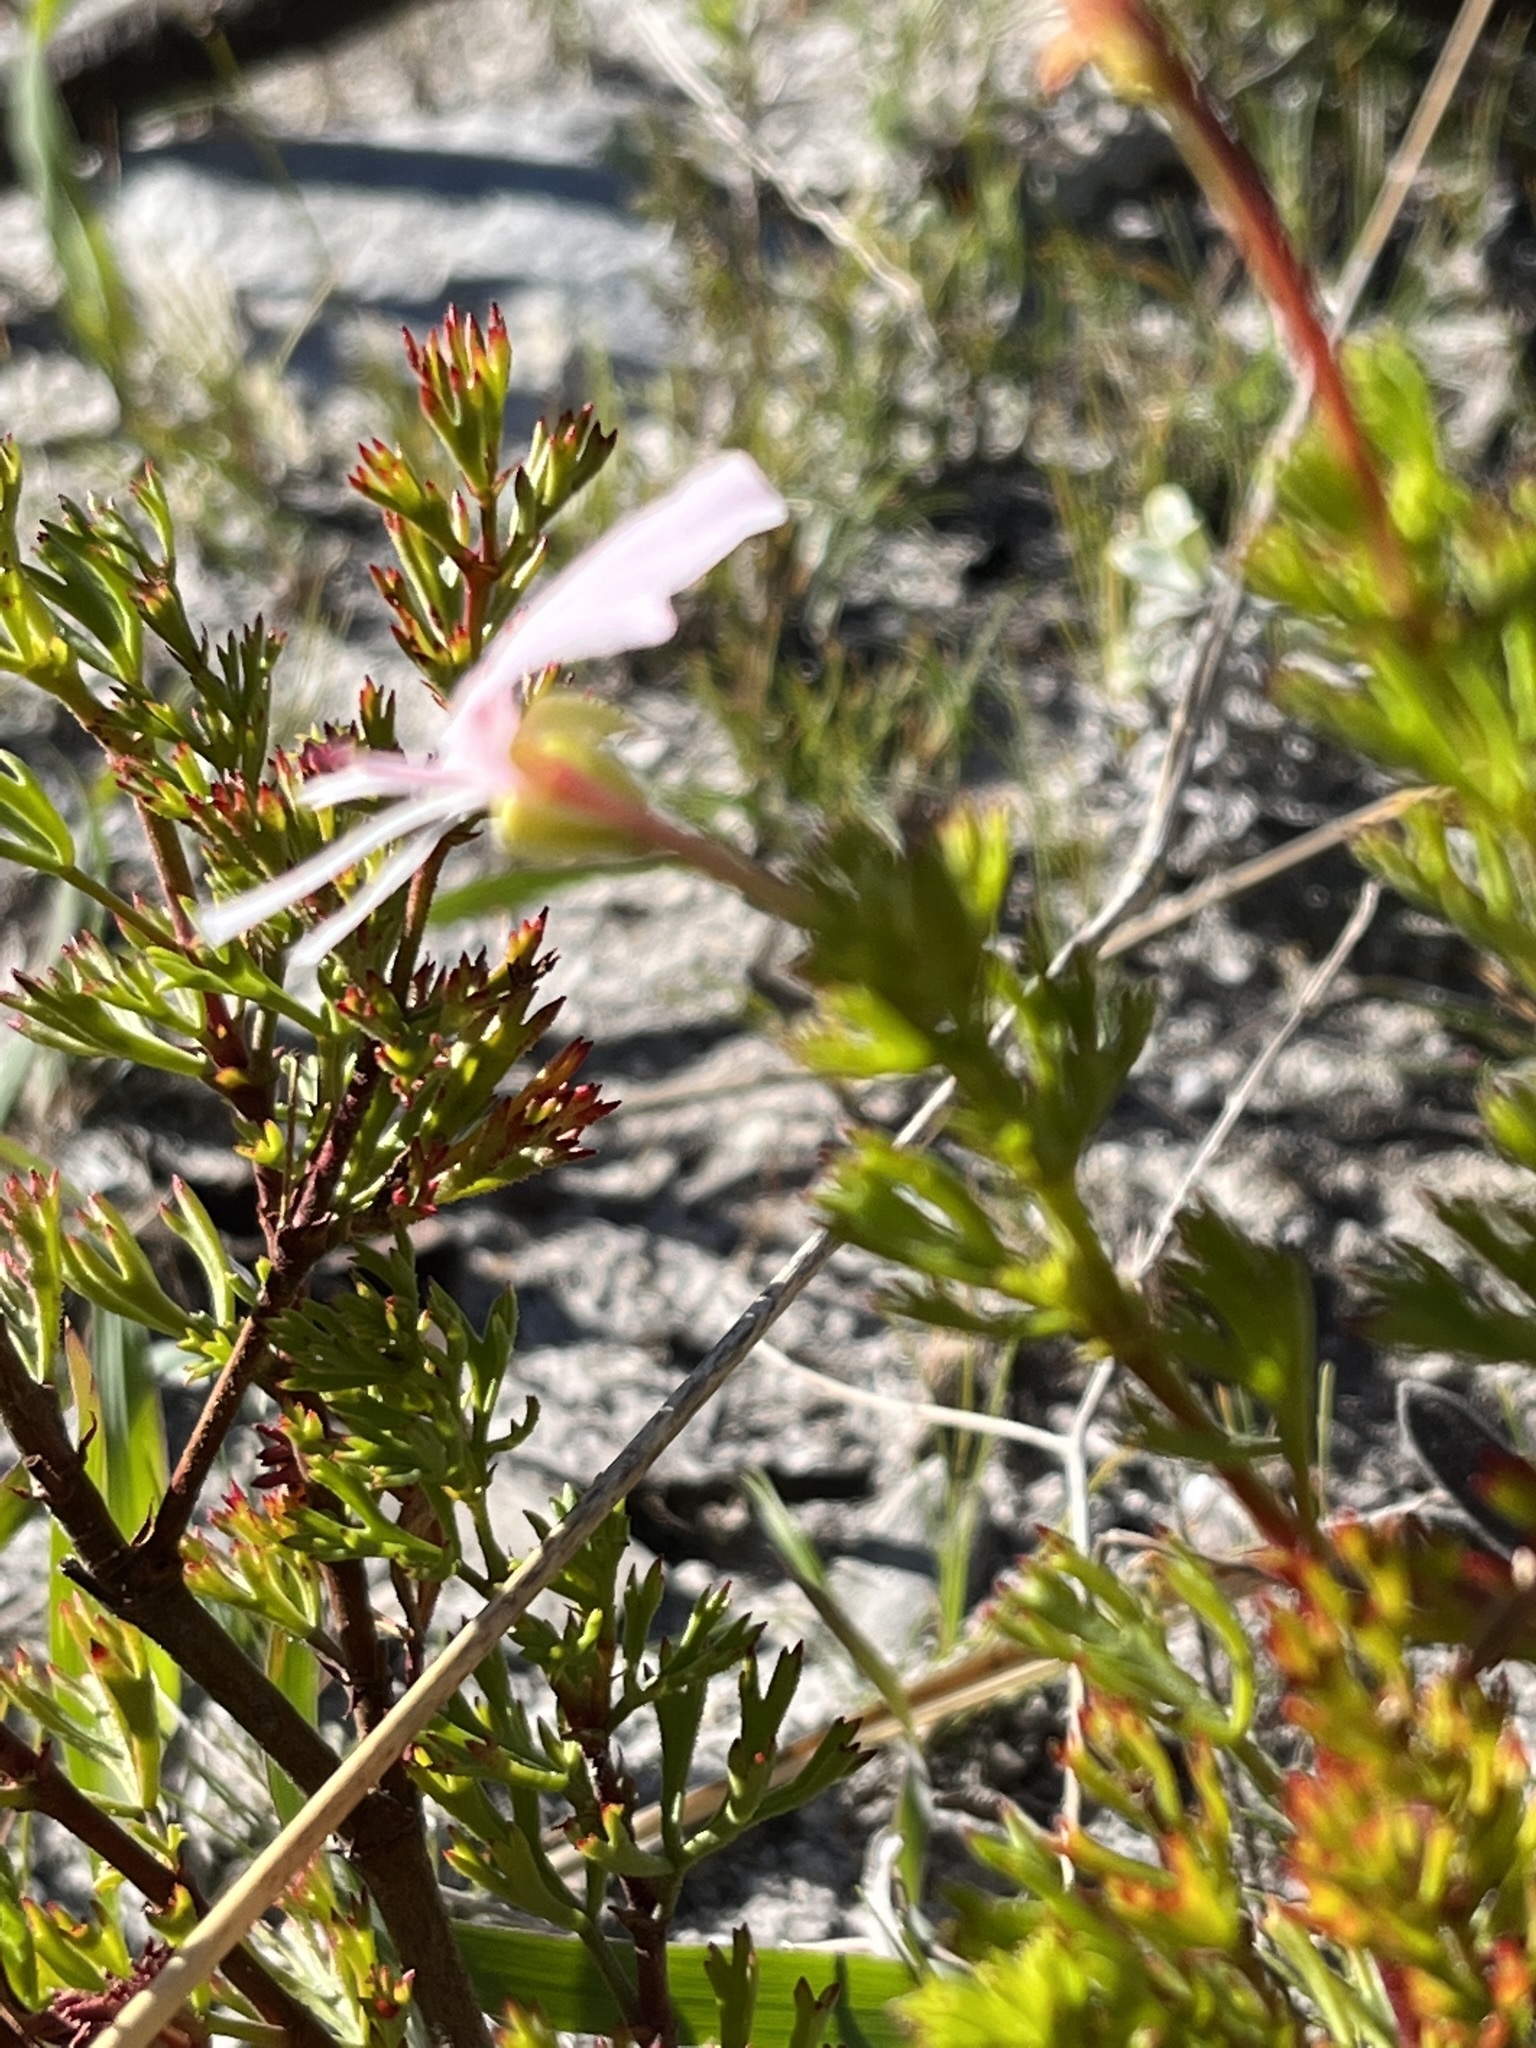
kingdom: Plantae
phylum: Tracheophyta
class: Magnoliopsida
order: Geraniales
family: Geraniaceae
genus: Pelargonium
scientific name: Pelargonium fruticosum
